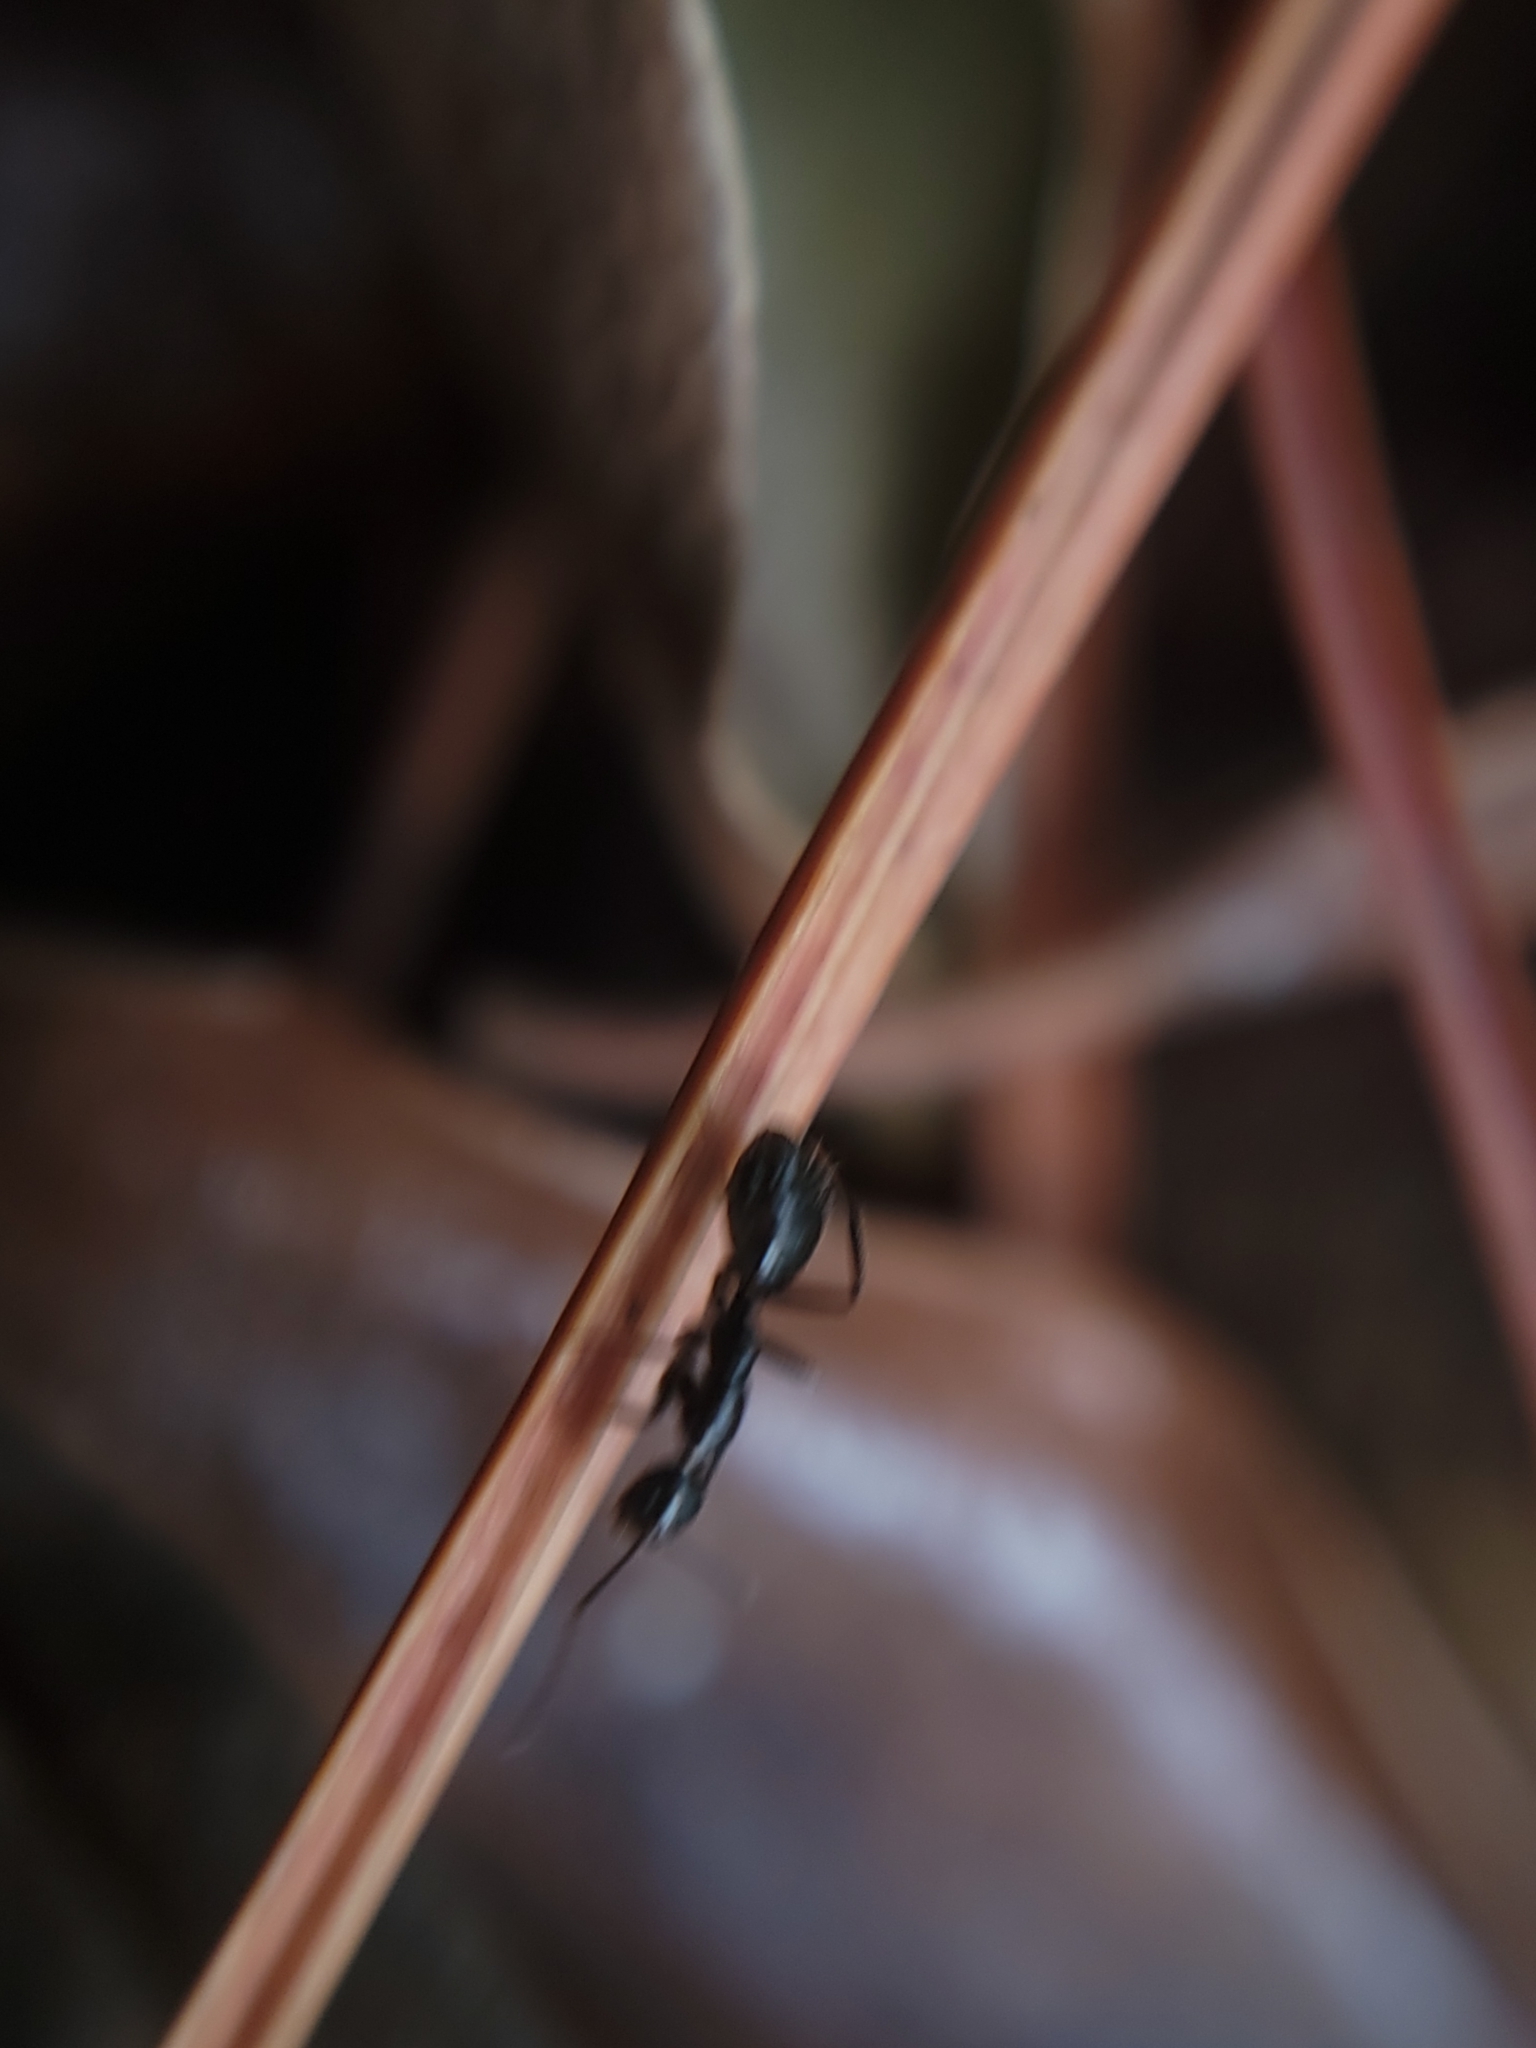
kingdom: Animalia
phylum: Arthropoda
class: Insecta
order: Hymenoptera
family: Formicidae
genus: Camponotus
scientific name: Camponotus sexguttatus
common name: Neotropical carpenter ant
